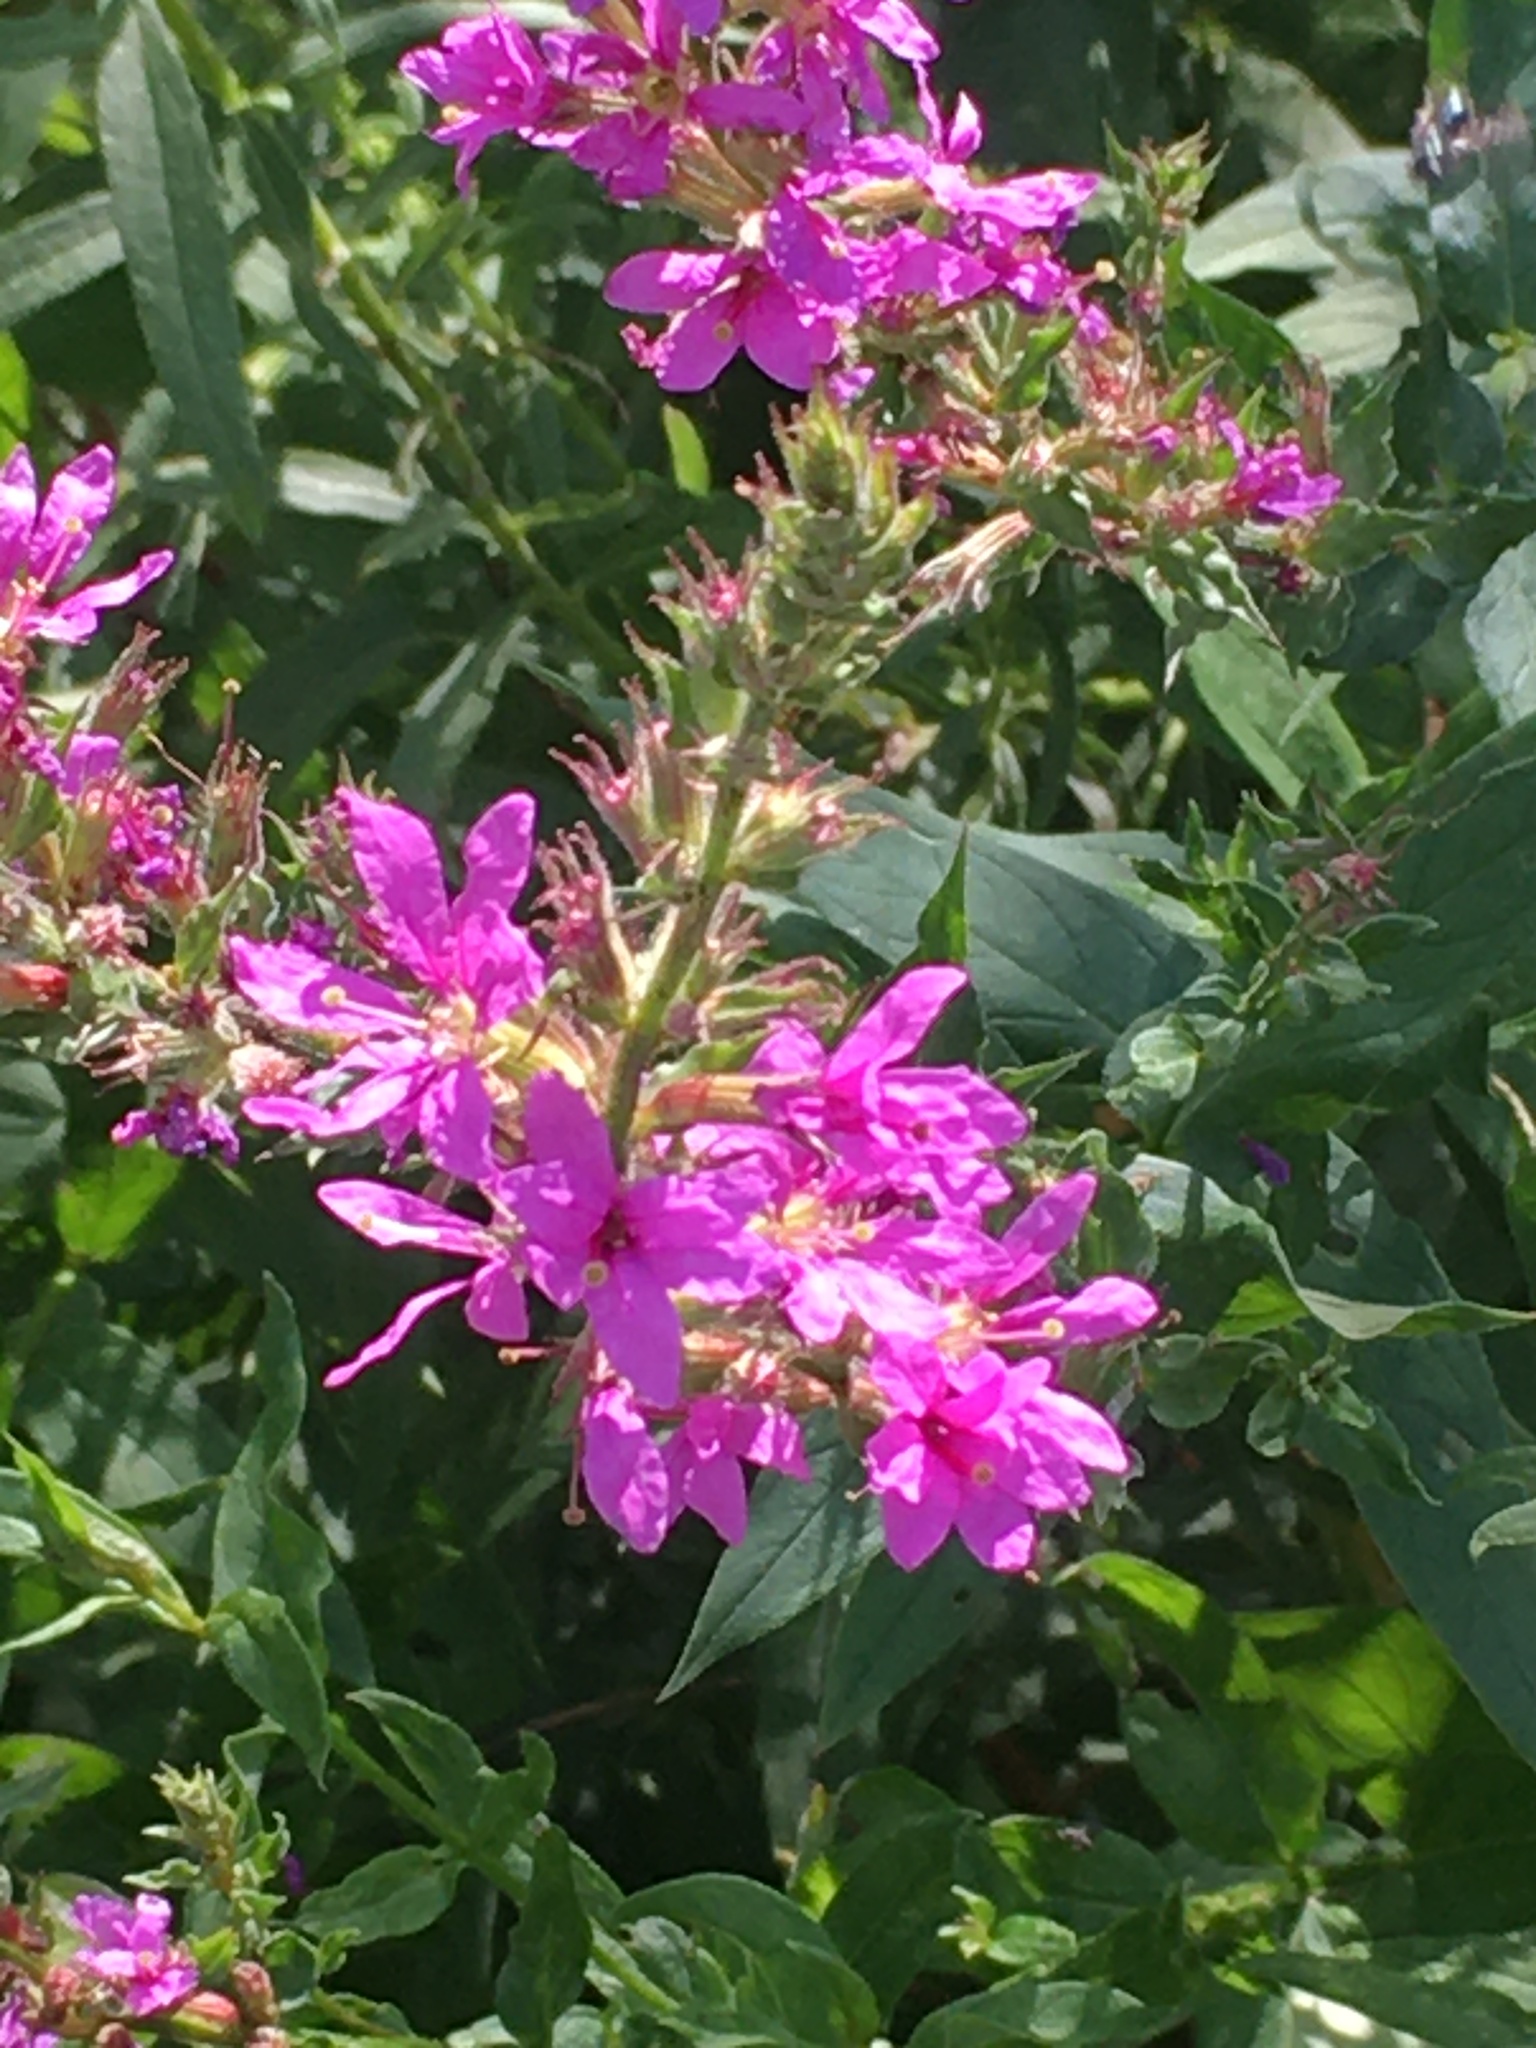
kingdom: Plantae
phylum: Tracheophyta
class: Magnoliopsida
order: Myrtales
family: Lythraceae
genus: Lythrum
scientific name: Lythrum salicaria
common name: Purple loosestrife
